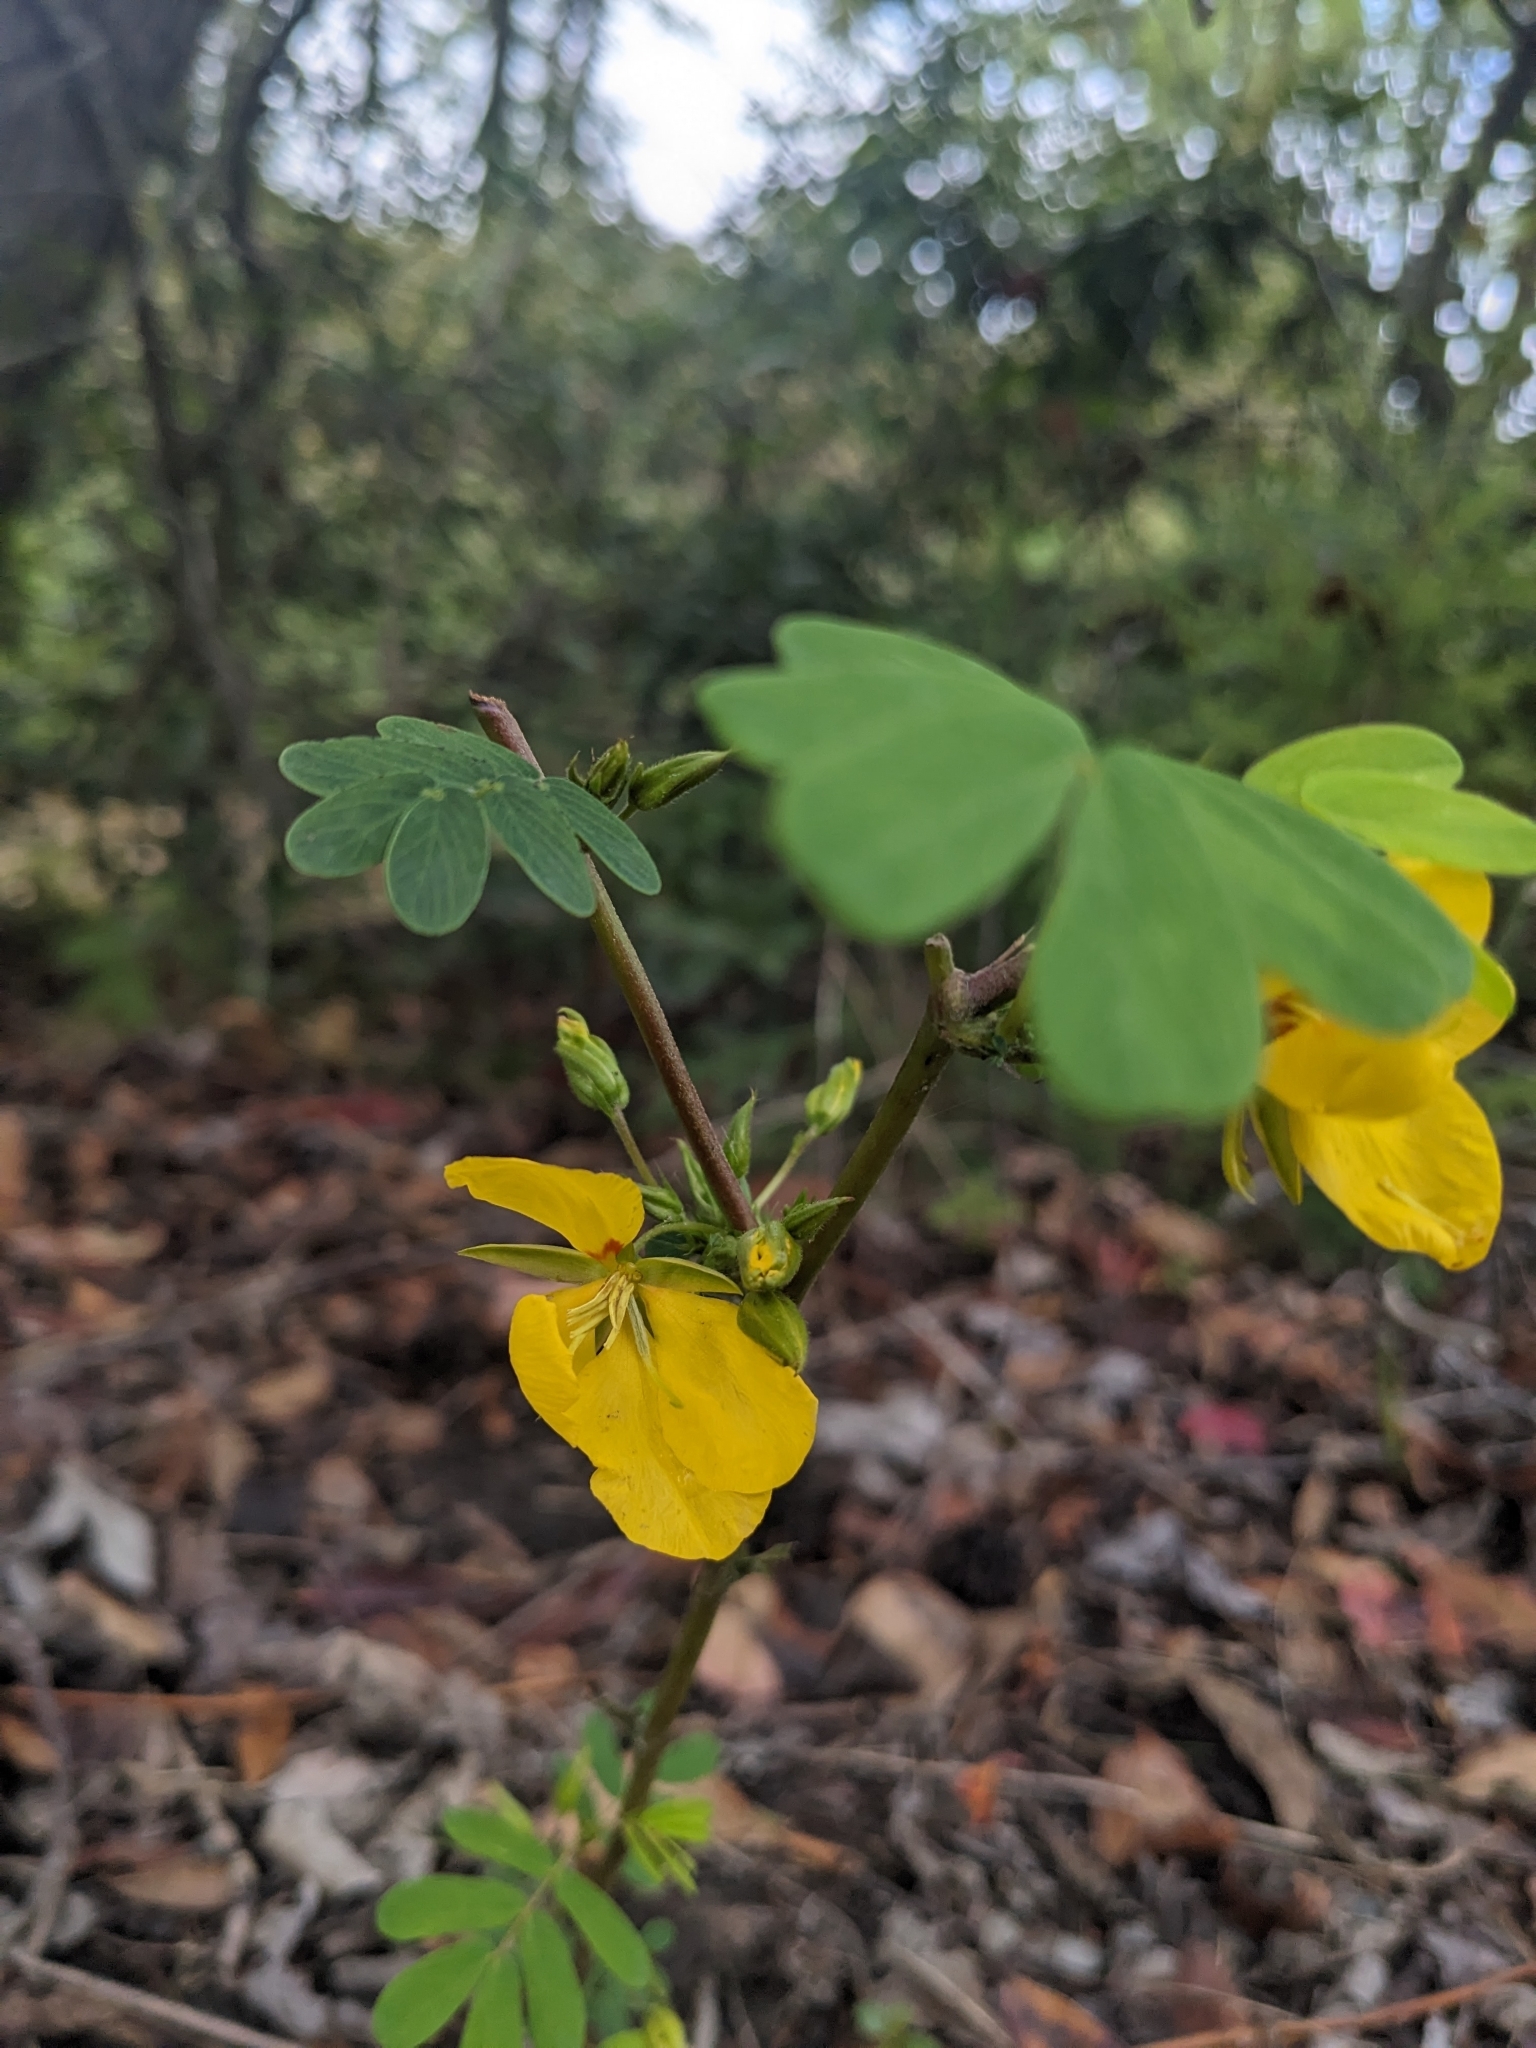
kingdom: Plantae
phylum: Tracheophyta
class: Magnoliopsida
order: Fabales
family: Fabaceae
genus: Chamaecrista
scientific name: Chamaecrista fasciculata
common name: Golden cassia
